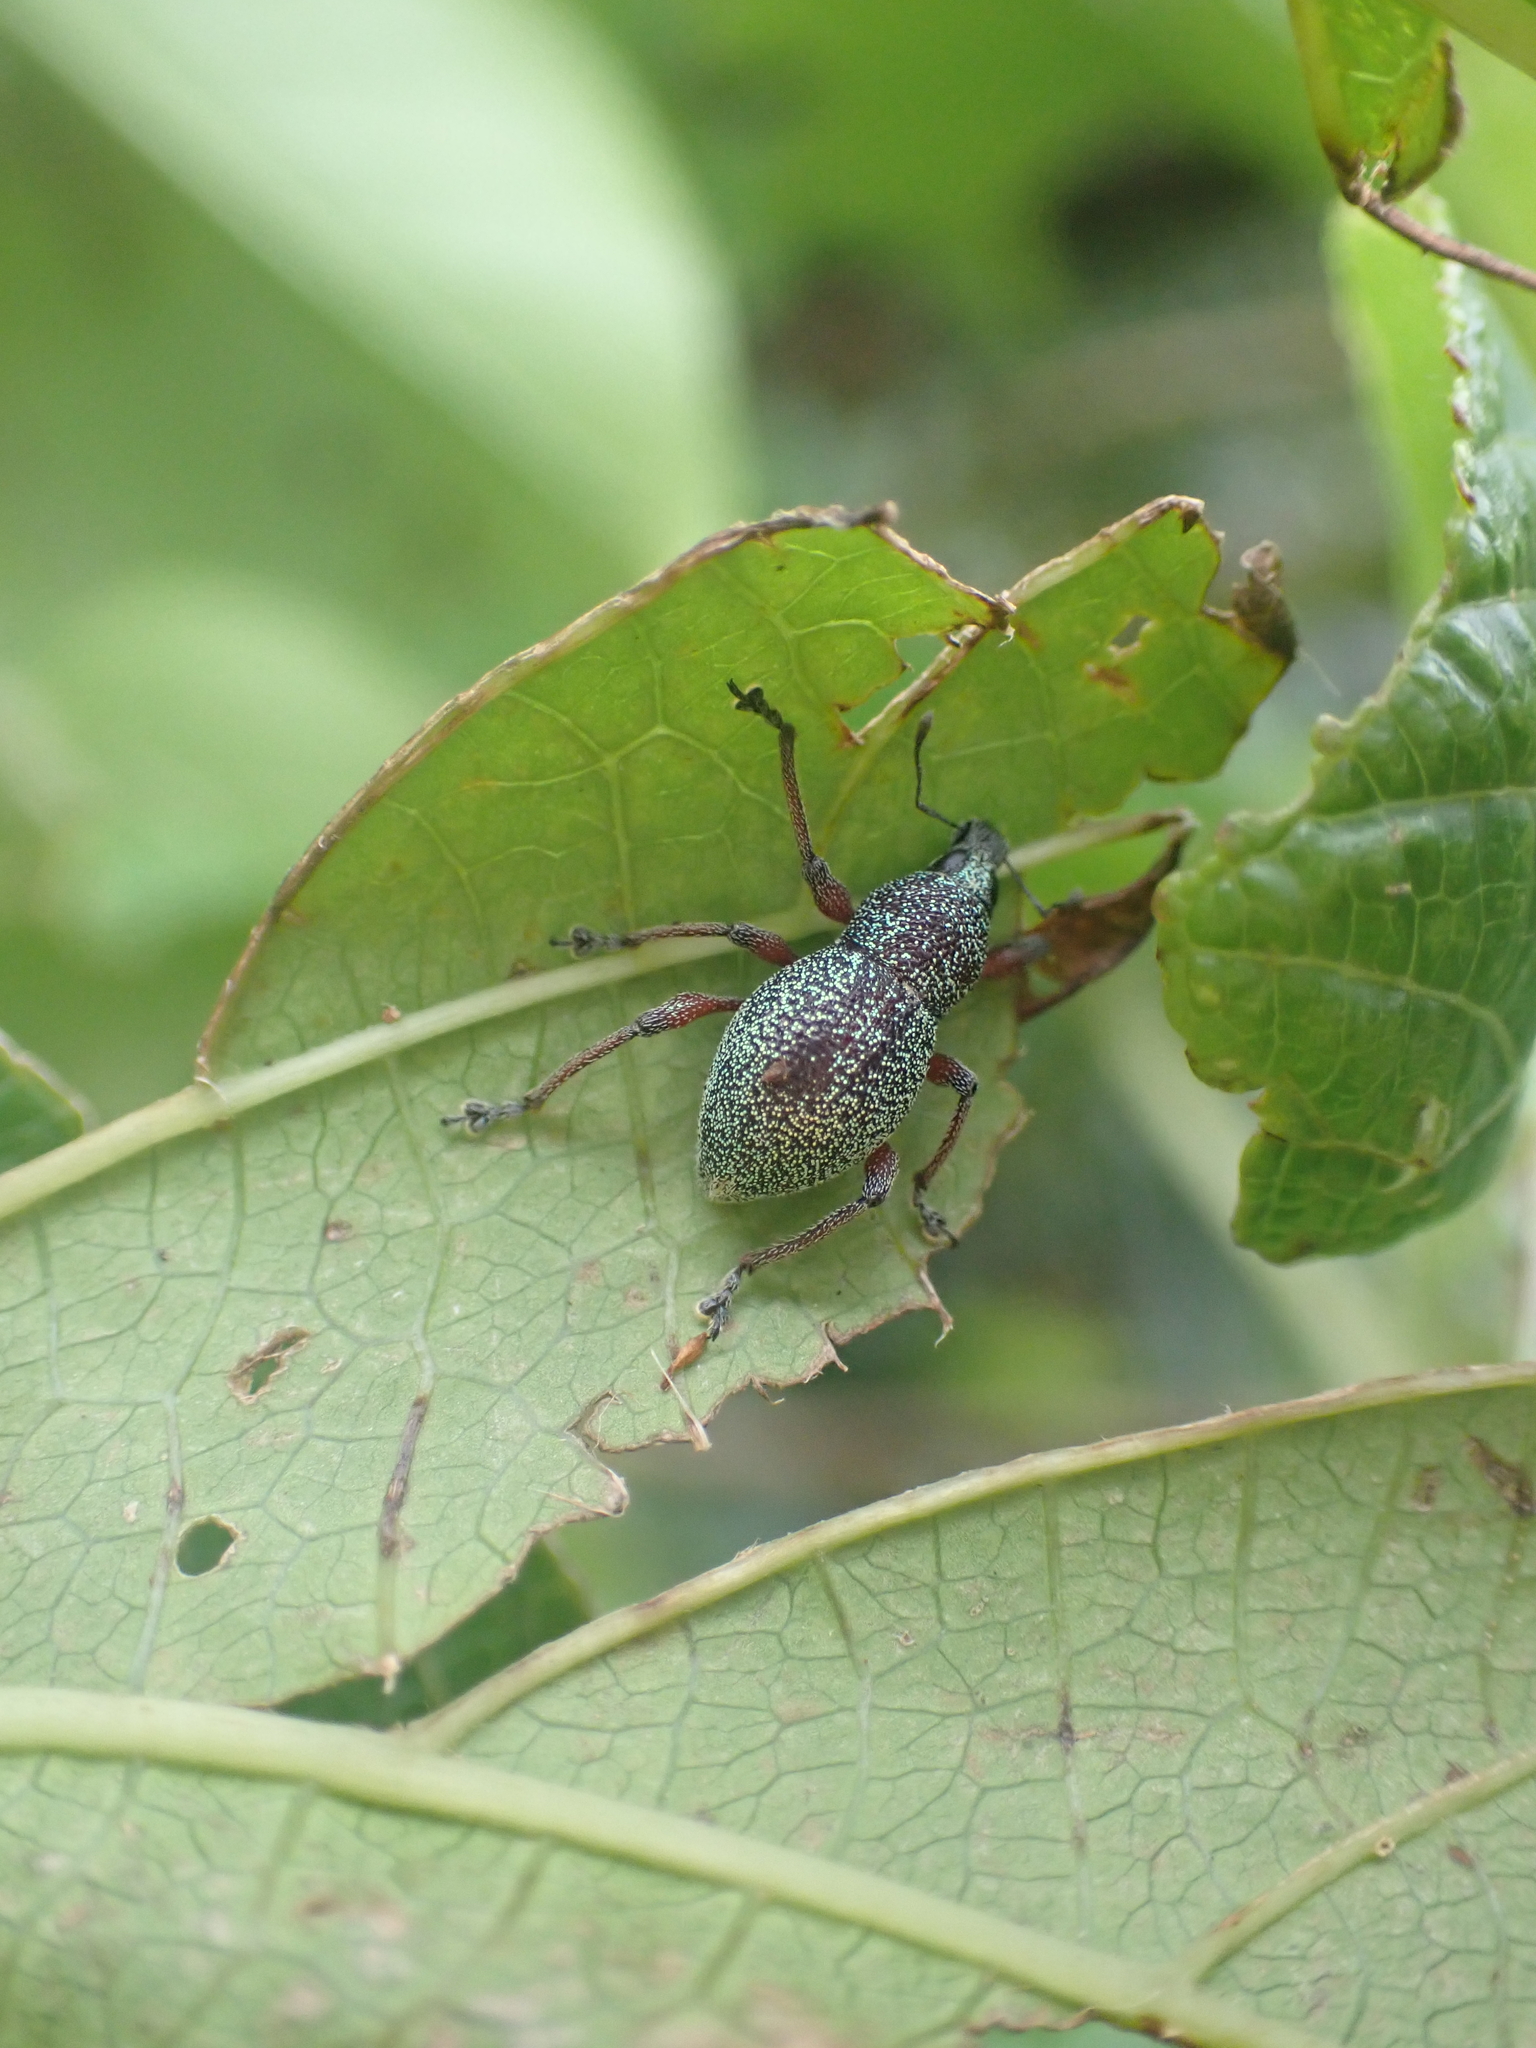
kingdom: Animalia
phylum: Arthropoda
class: Insecta
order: Coleoptera
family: Curculionidae
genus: Metapocyrtus
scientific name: Metapocyrtus immeritus
